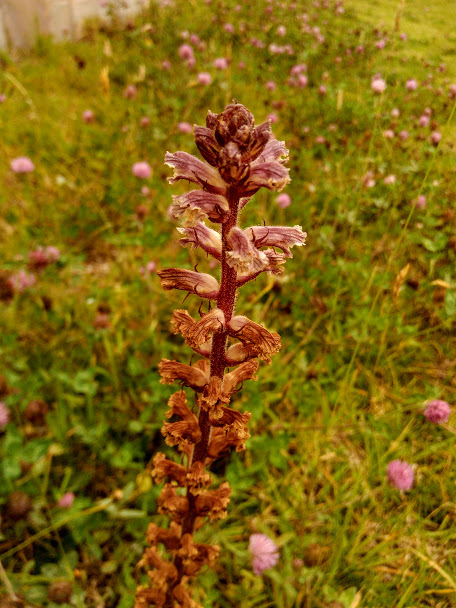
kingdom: Plantae
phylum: Tracheophyta
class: Magnoliopsida
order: Lamiales
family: Orobanchaceae
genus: Orobanche
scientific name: Orobanche minor
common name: Common broomrape
